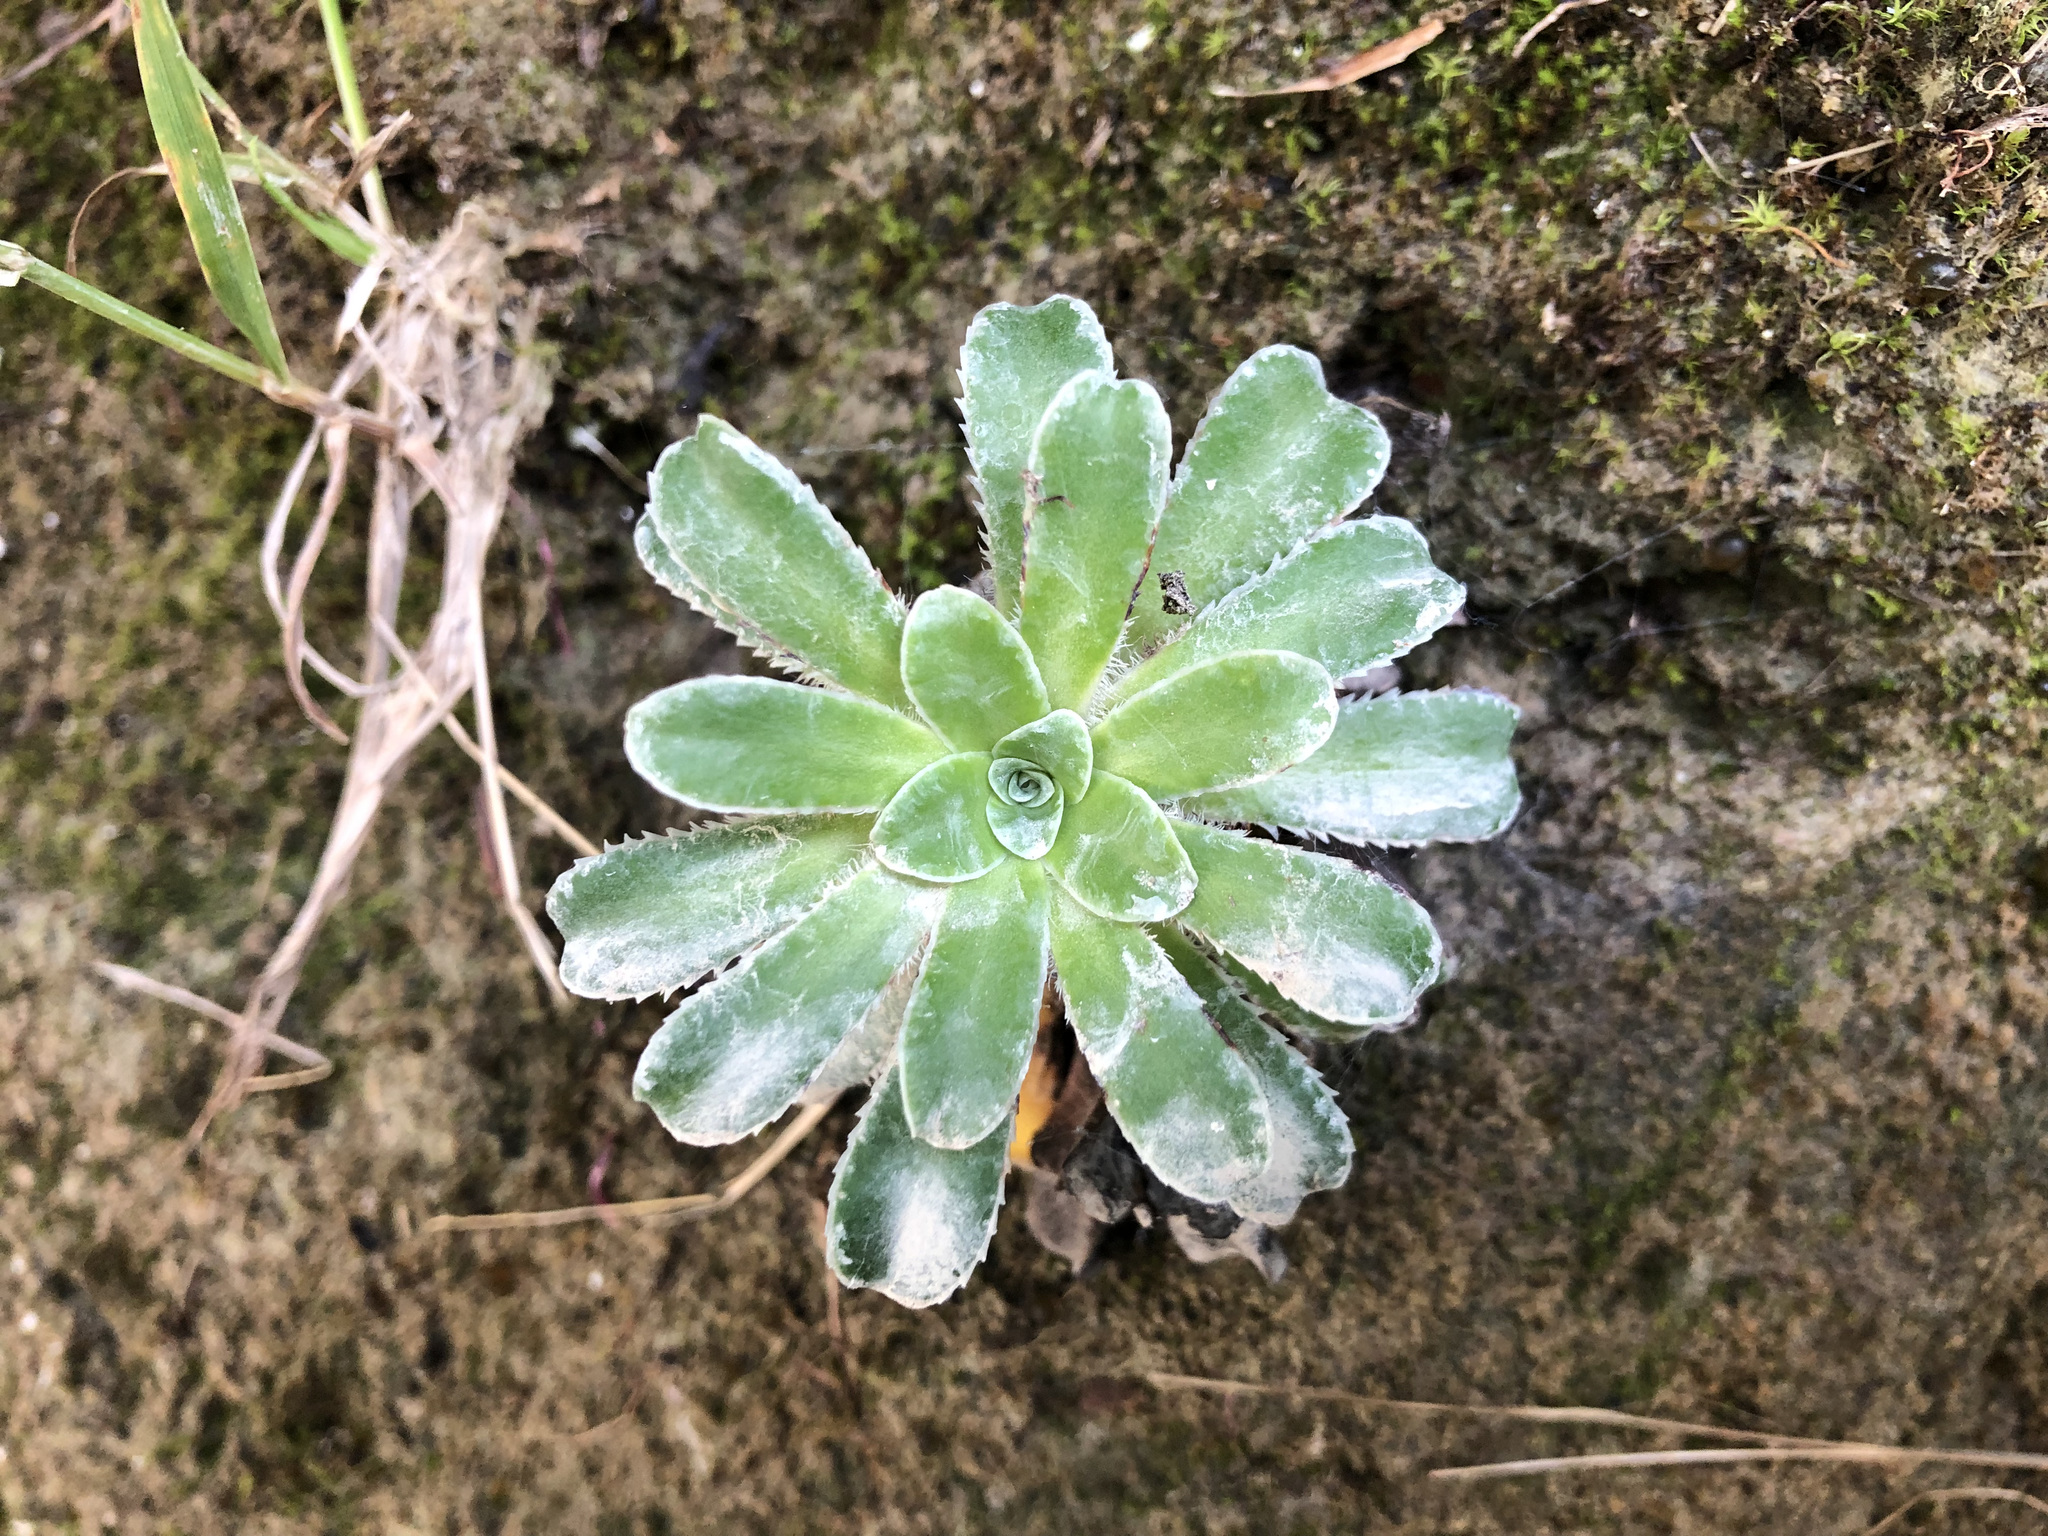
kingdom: Plantae
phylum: Tracheophyta
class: Magnoliopsida
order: Saxifragales
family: Saxifragaceae
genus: Saxifraga
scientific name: Saxifraga mutata
